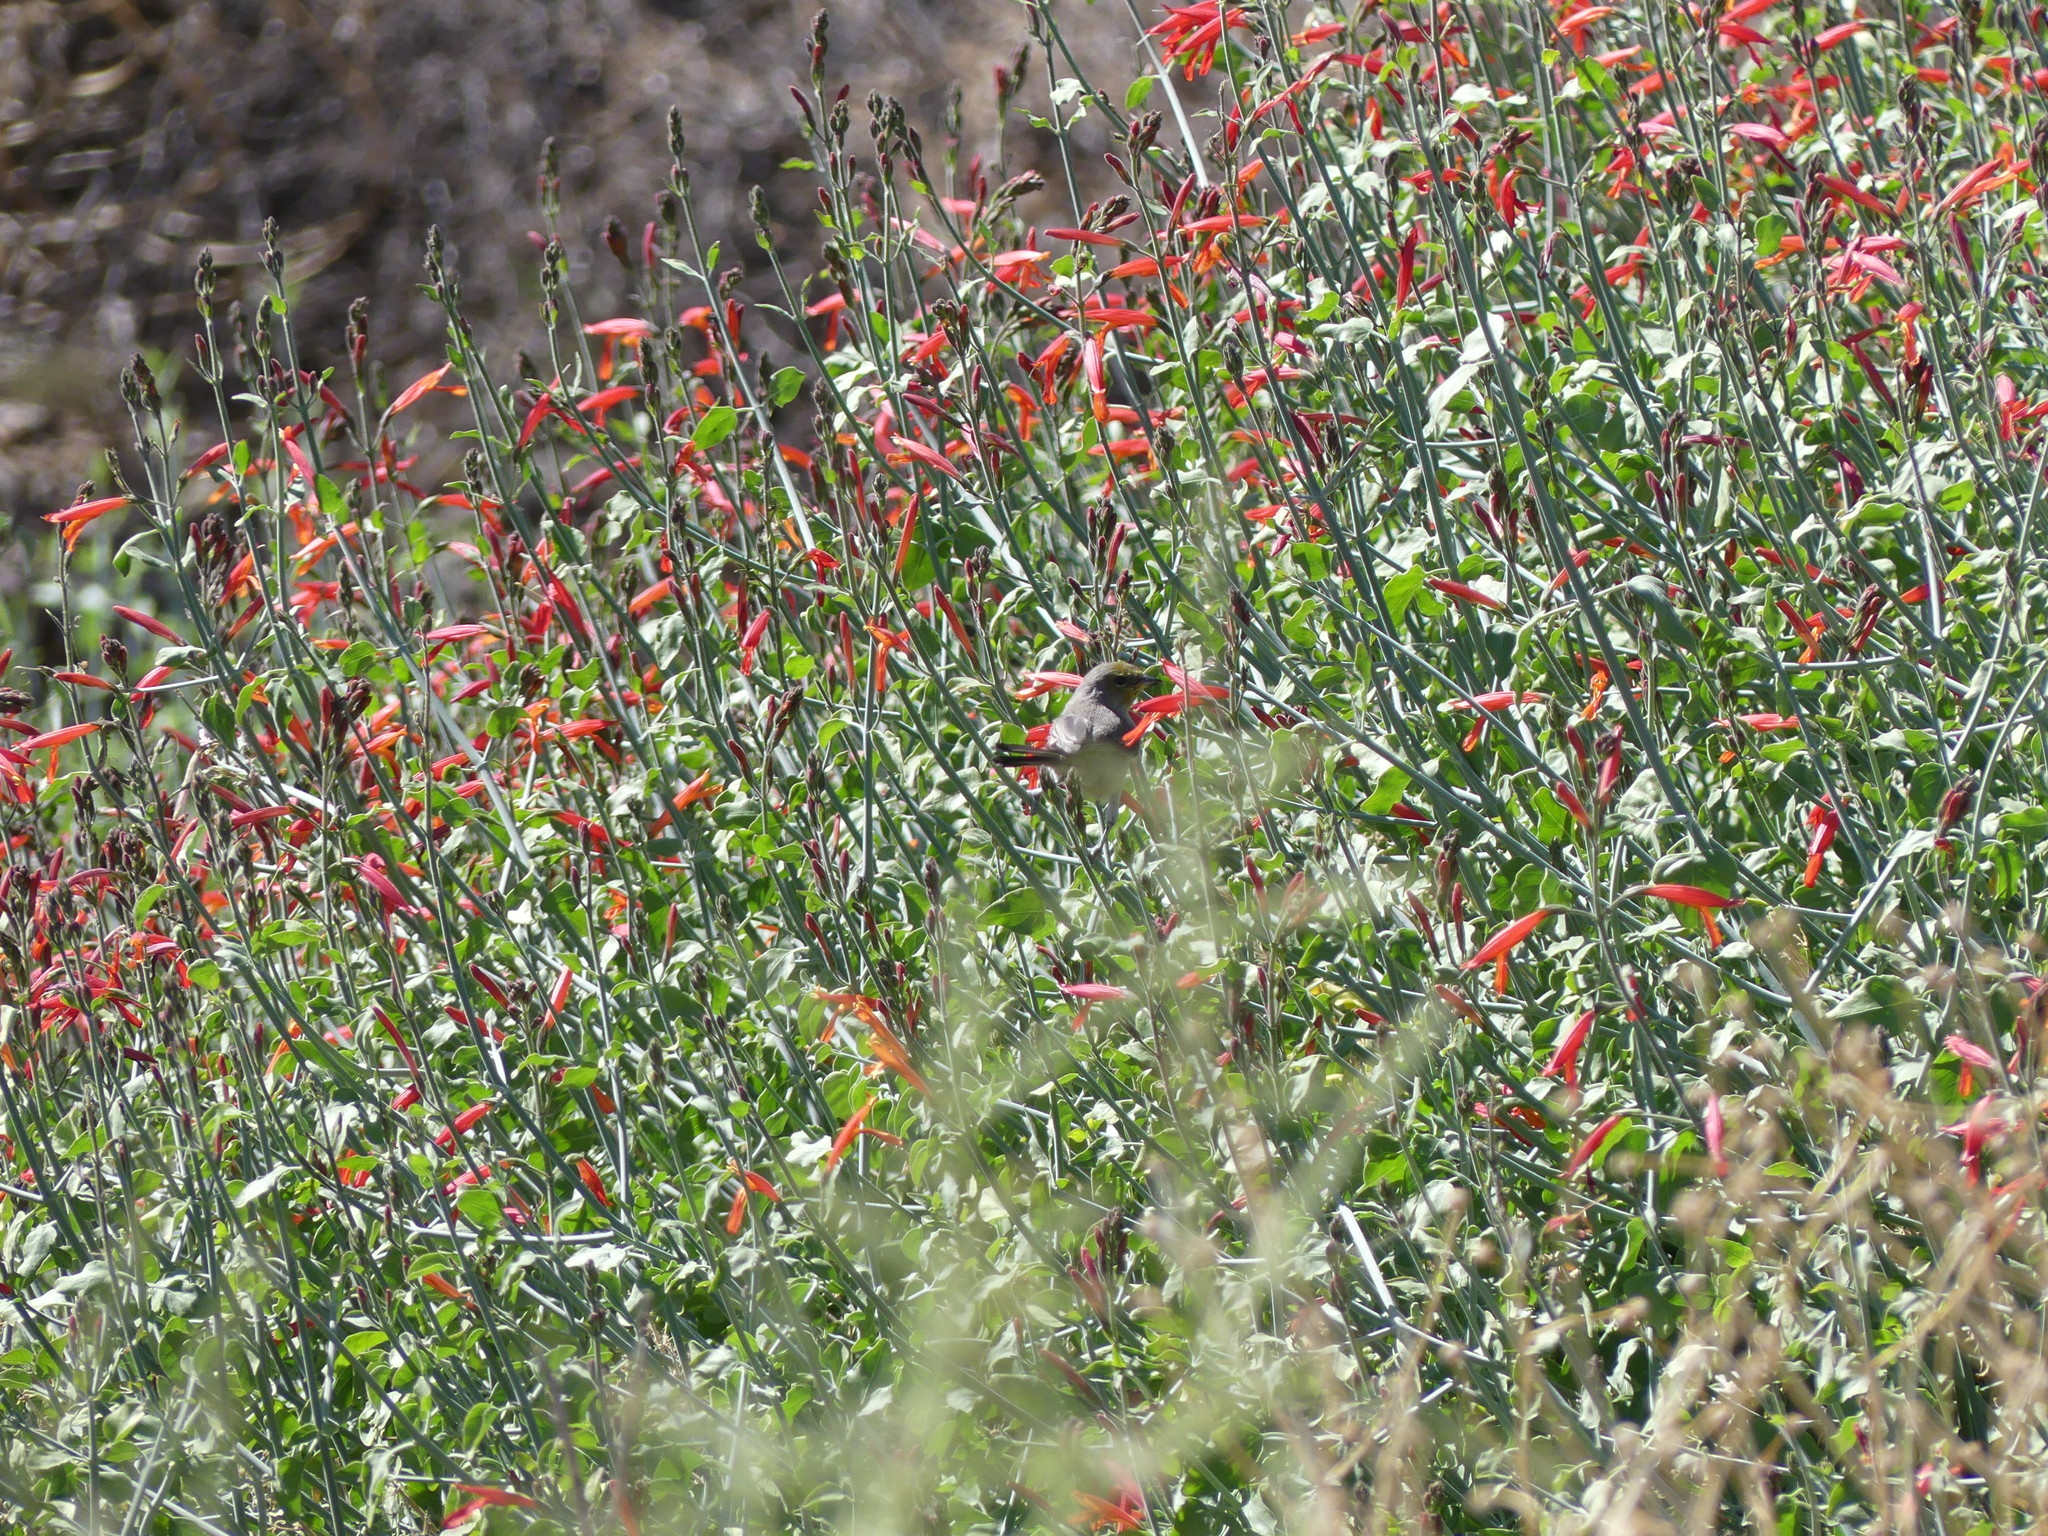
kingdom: Animalia
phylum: Chordata
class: Aves
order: Passeriformes
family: Remizidae
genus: Auriparus
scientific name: Auriparus flaviceps
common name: Verdin
